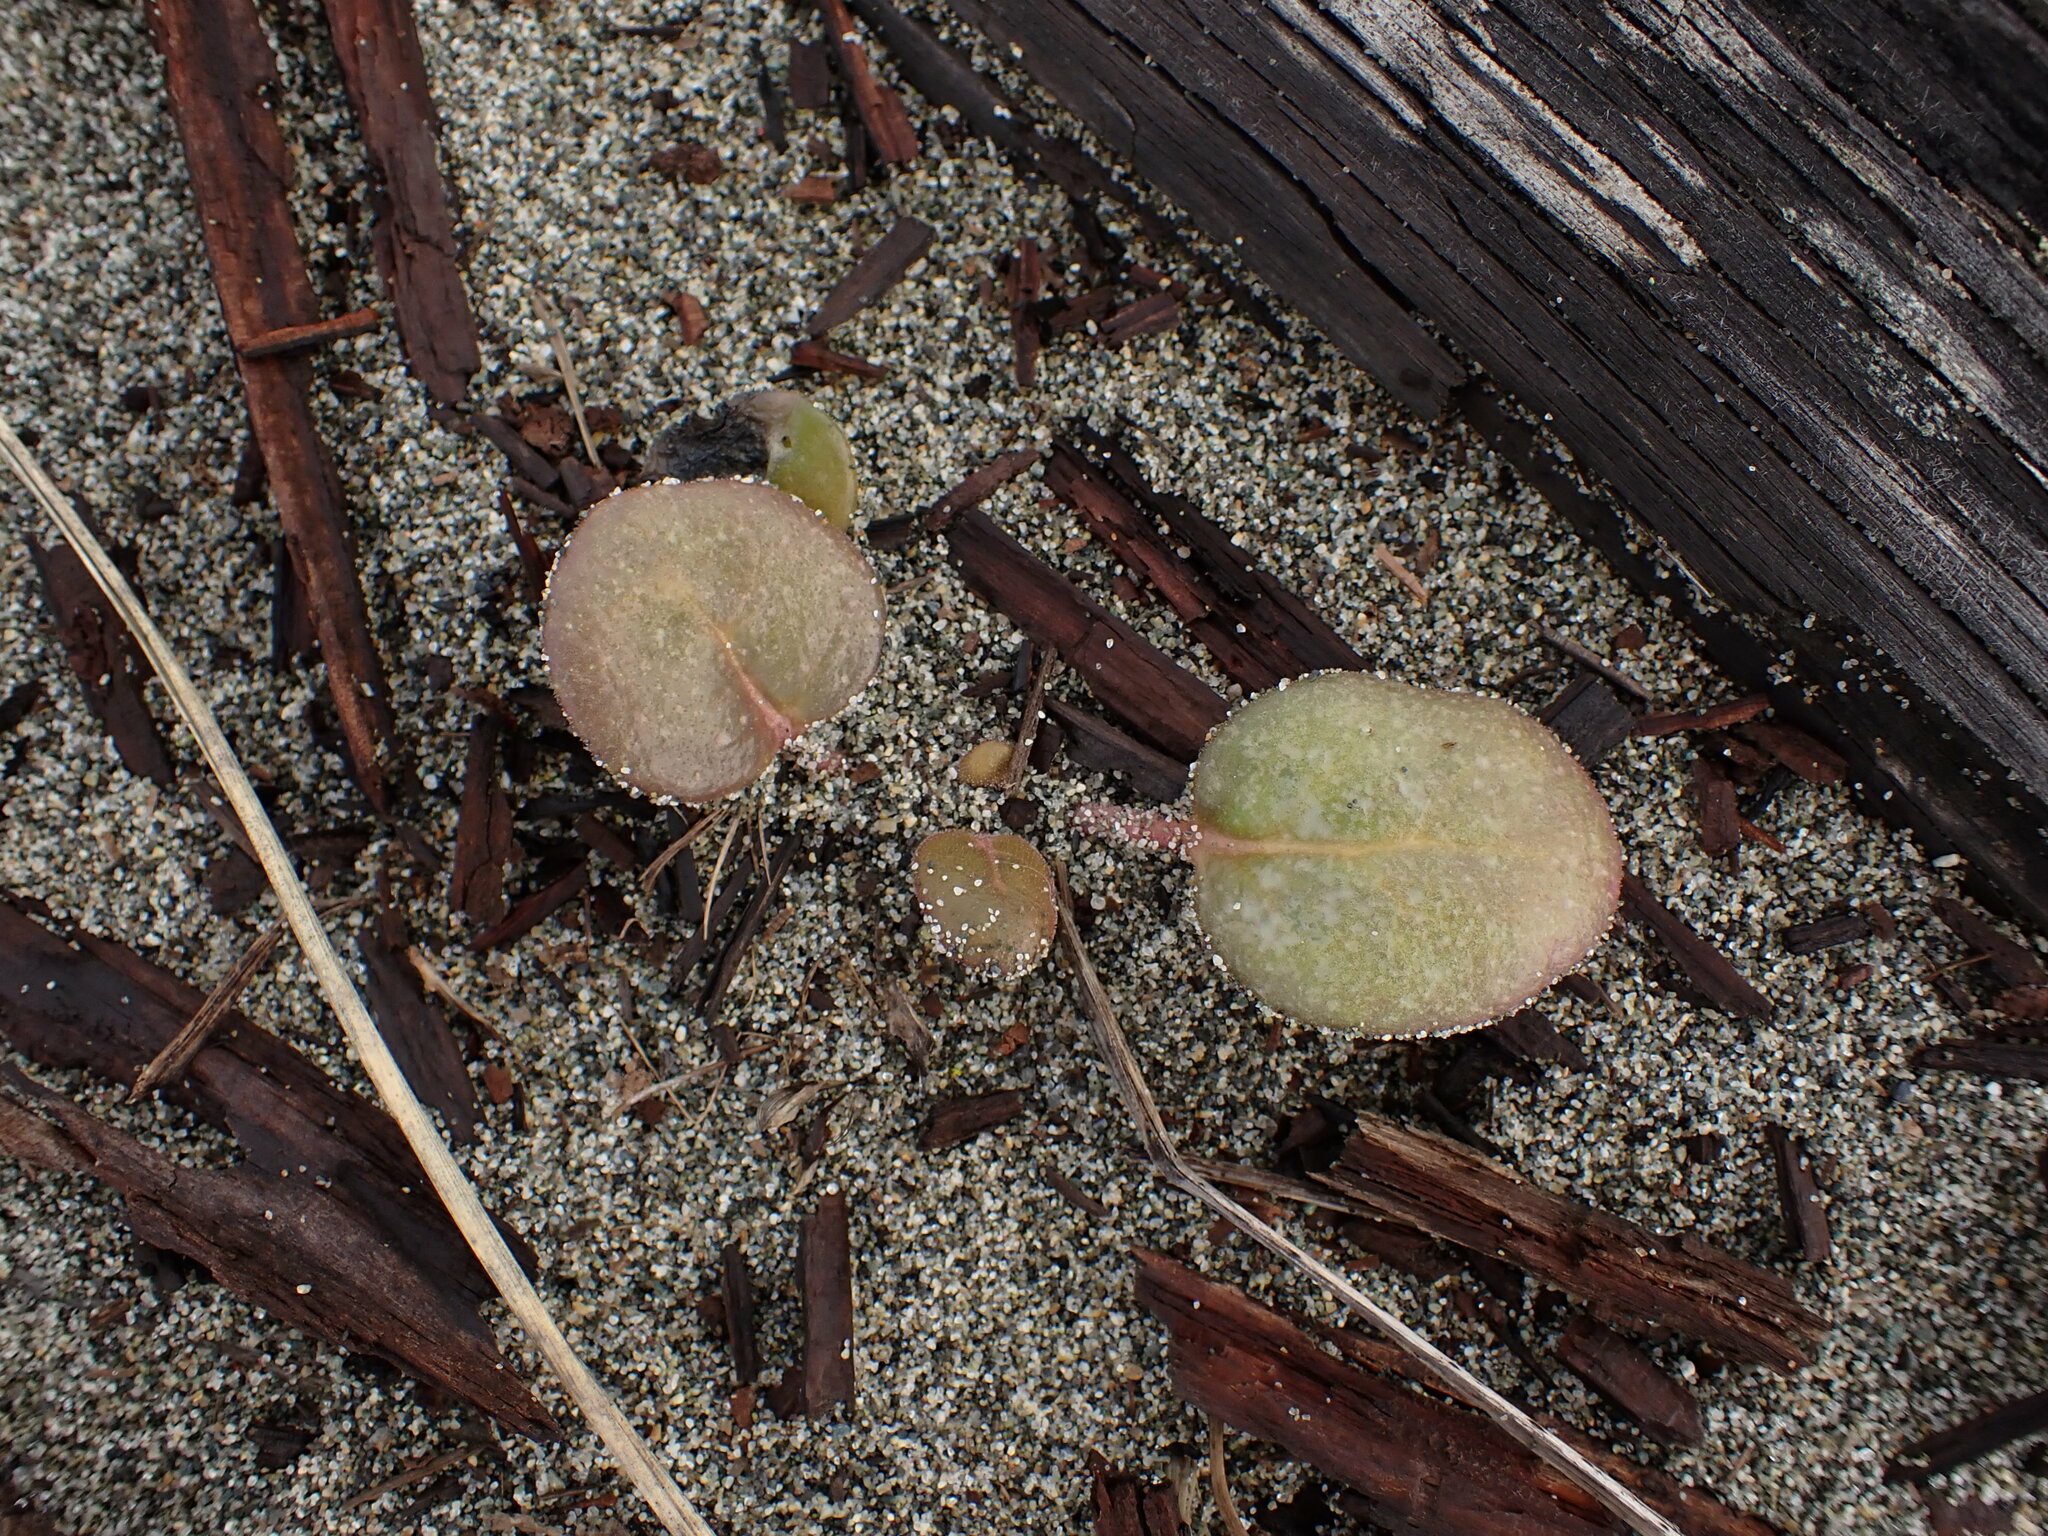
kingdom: Plantae
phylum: Tracheophyta
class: Magnoliopsida
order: Caryophyllales
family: Nyctaginaceae
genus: Abronia
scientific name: Abronia latifolia
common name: Yellow sand-verbena
